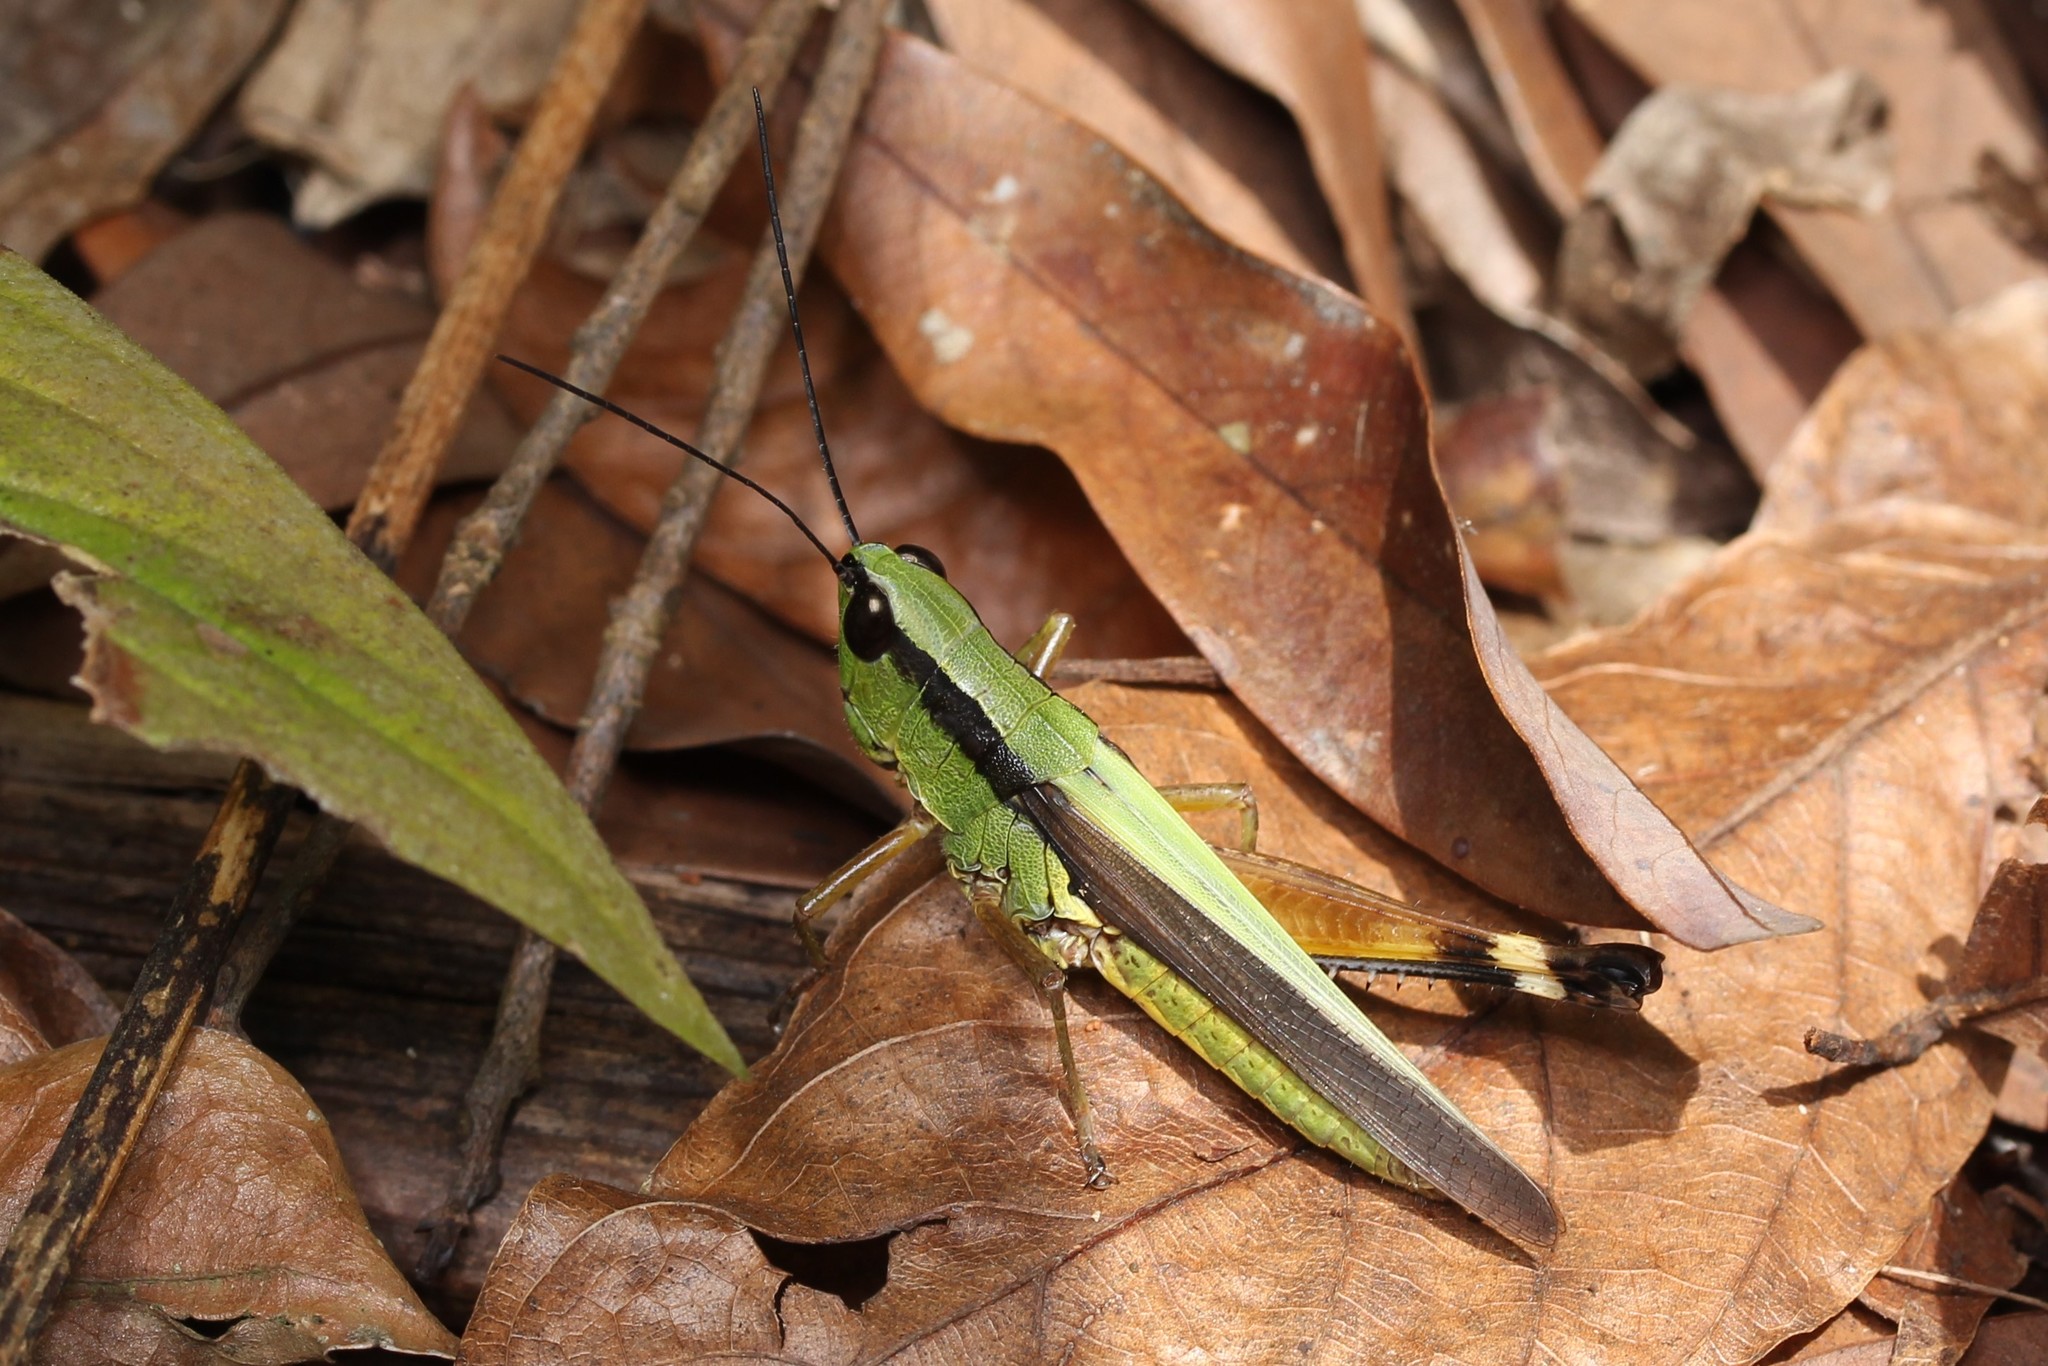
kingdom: Animalia
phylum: Arthropoda
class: Insecta
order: Orthoptera
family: Acrididae
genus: Ceracris
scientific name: Ceracris nigricornis
